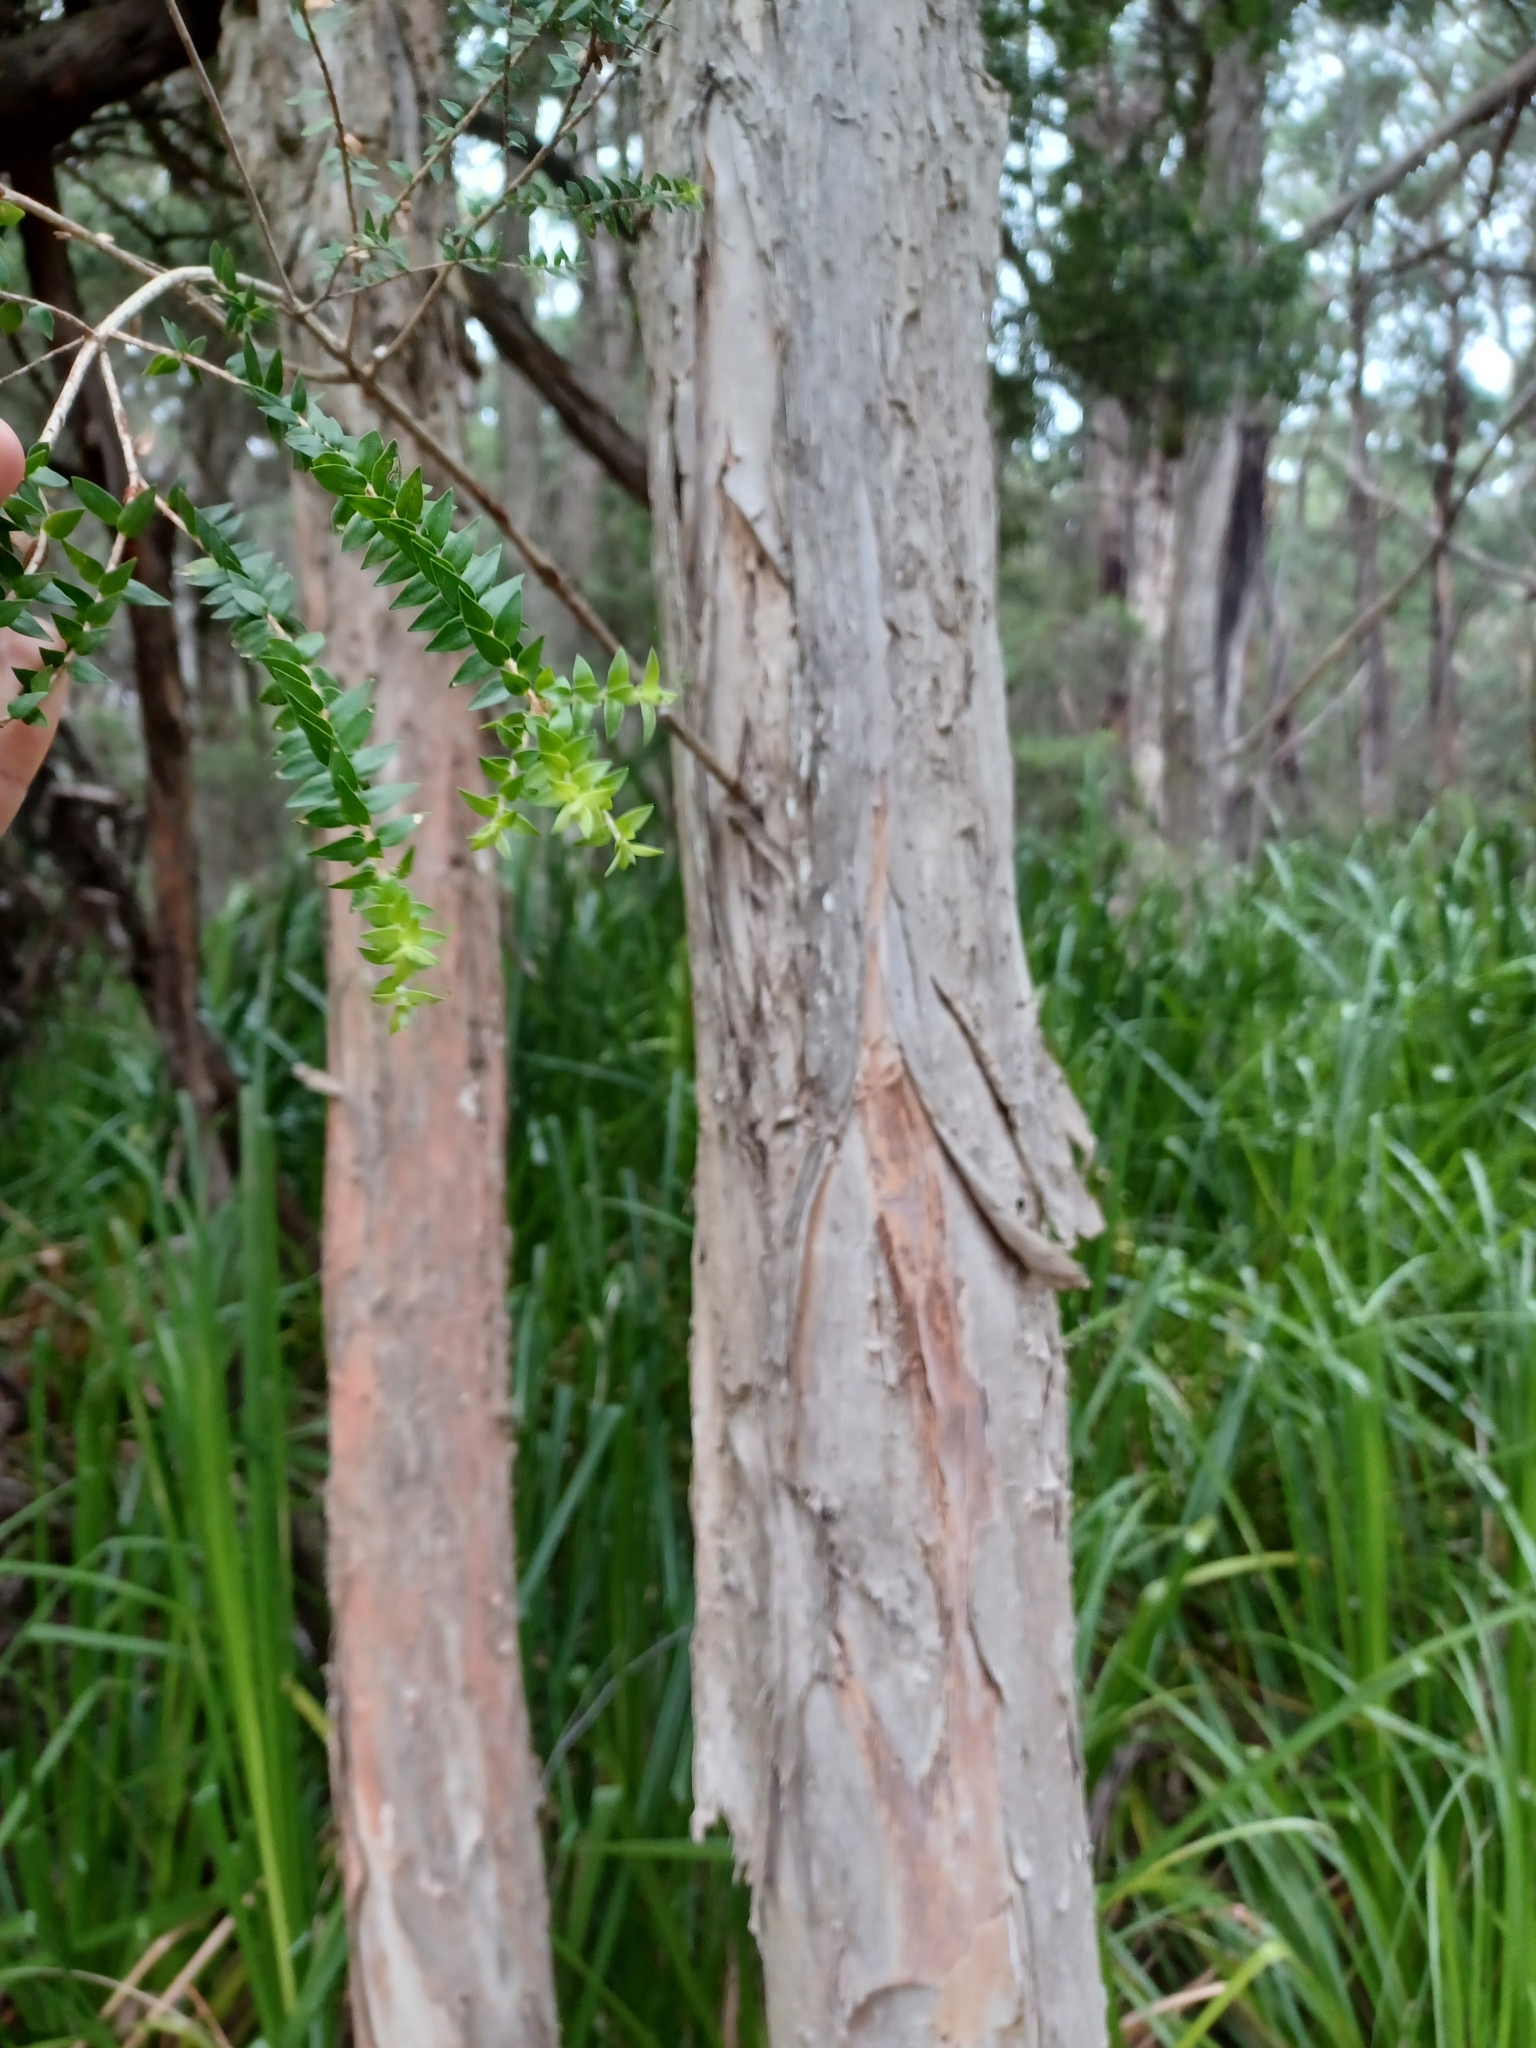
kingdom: Plantae
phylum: Tracheophyta
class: Magnoliopsida
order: Myrtales
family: Myrtaceae
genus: Melaleuca
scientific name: Melaleuca squarrosa
